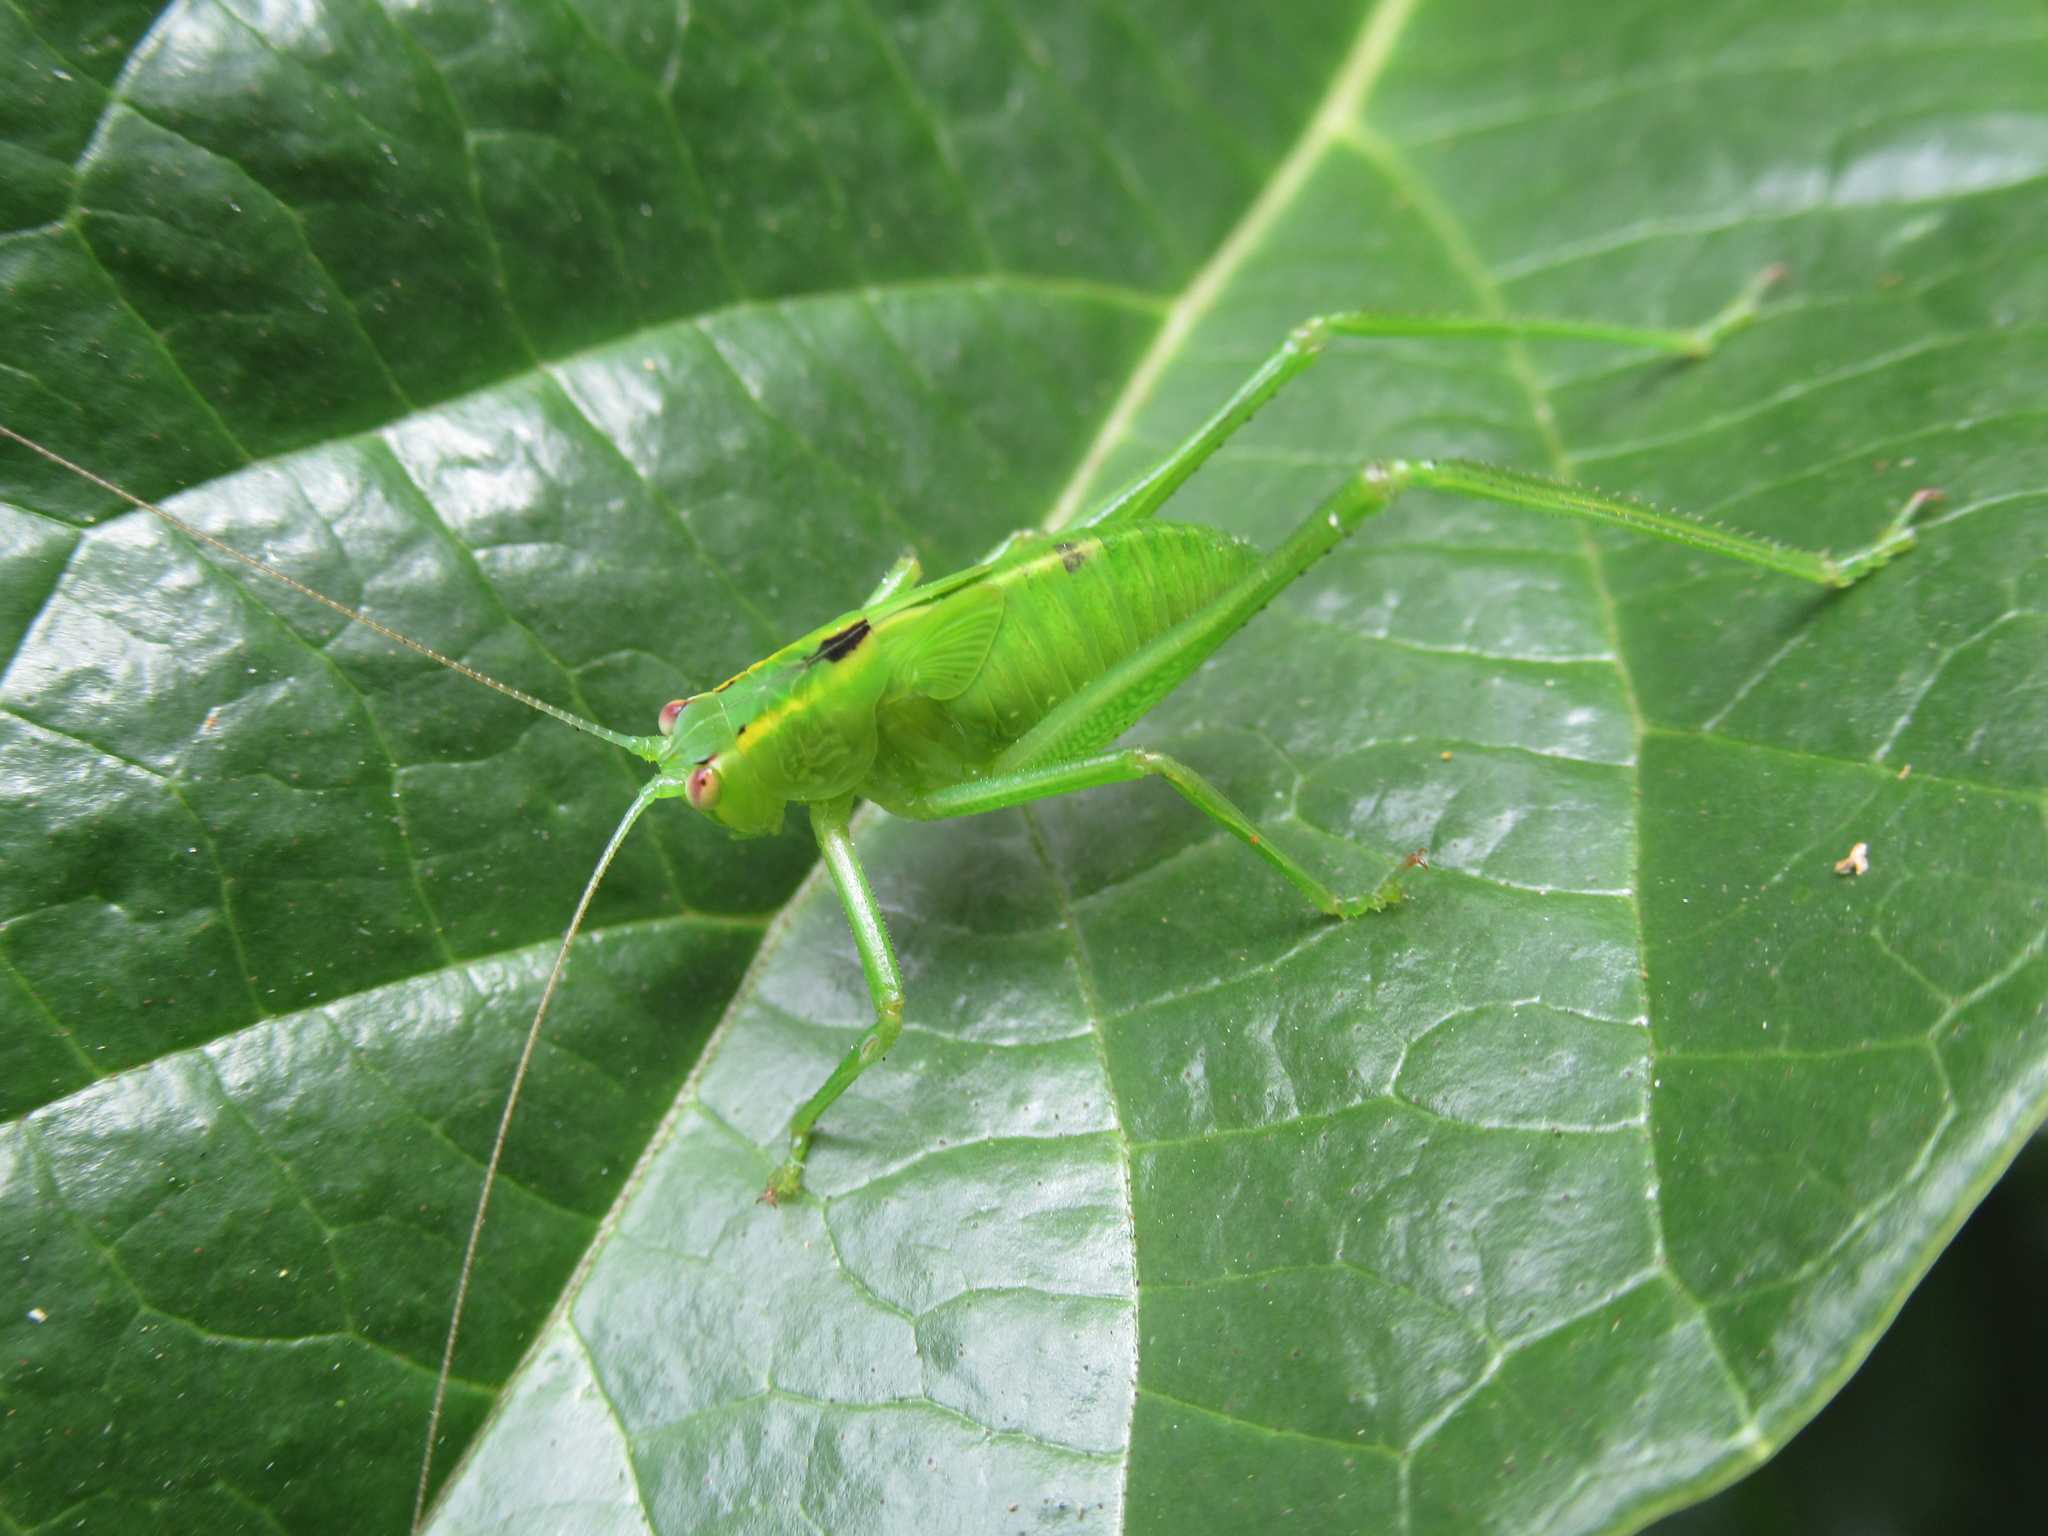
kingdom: Animalia
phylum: Arthropoda
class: Insecta
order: Orthoptera
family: Tettigoniidae
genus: Caedicia
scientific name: Caedicia simplex
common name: Common garden katydid
